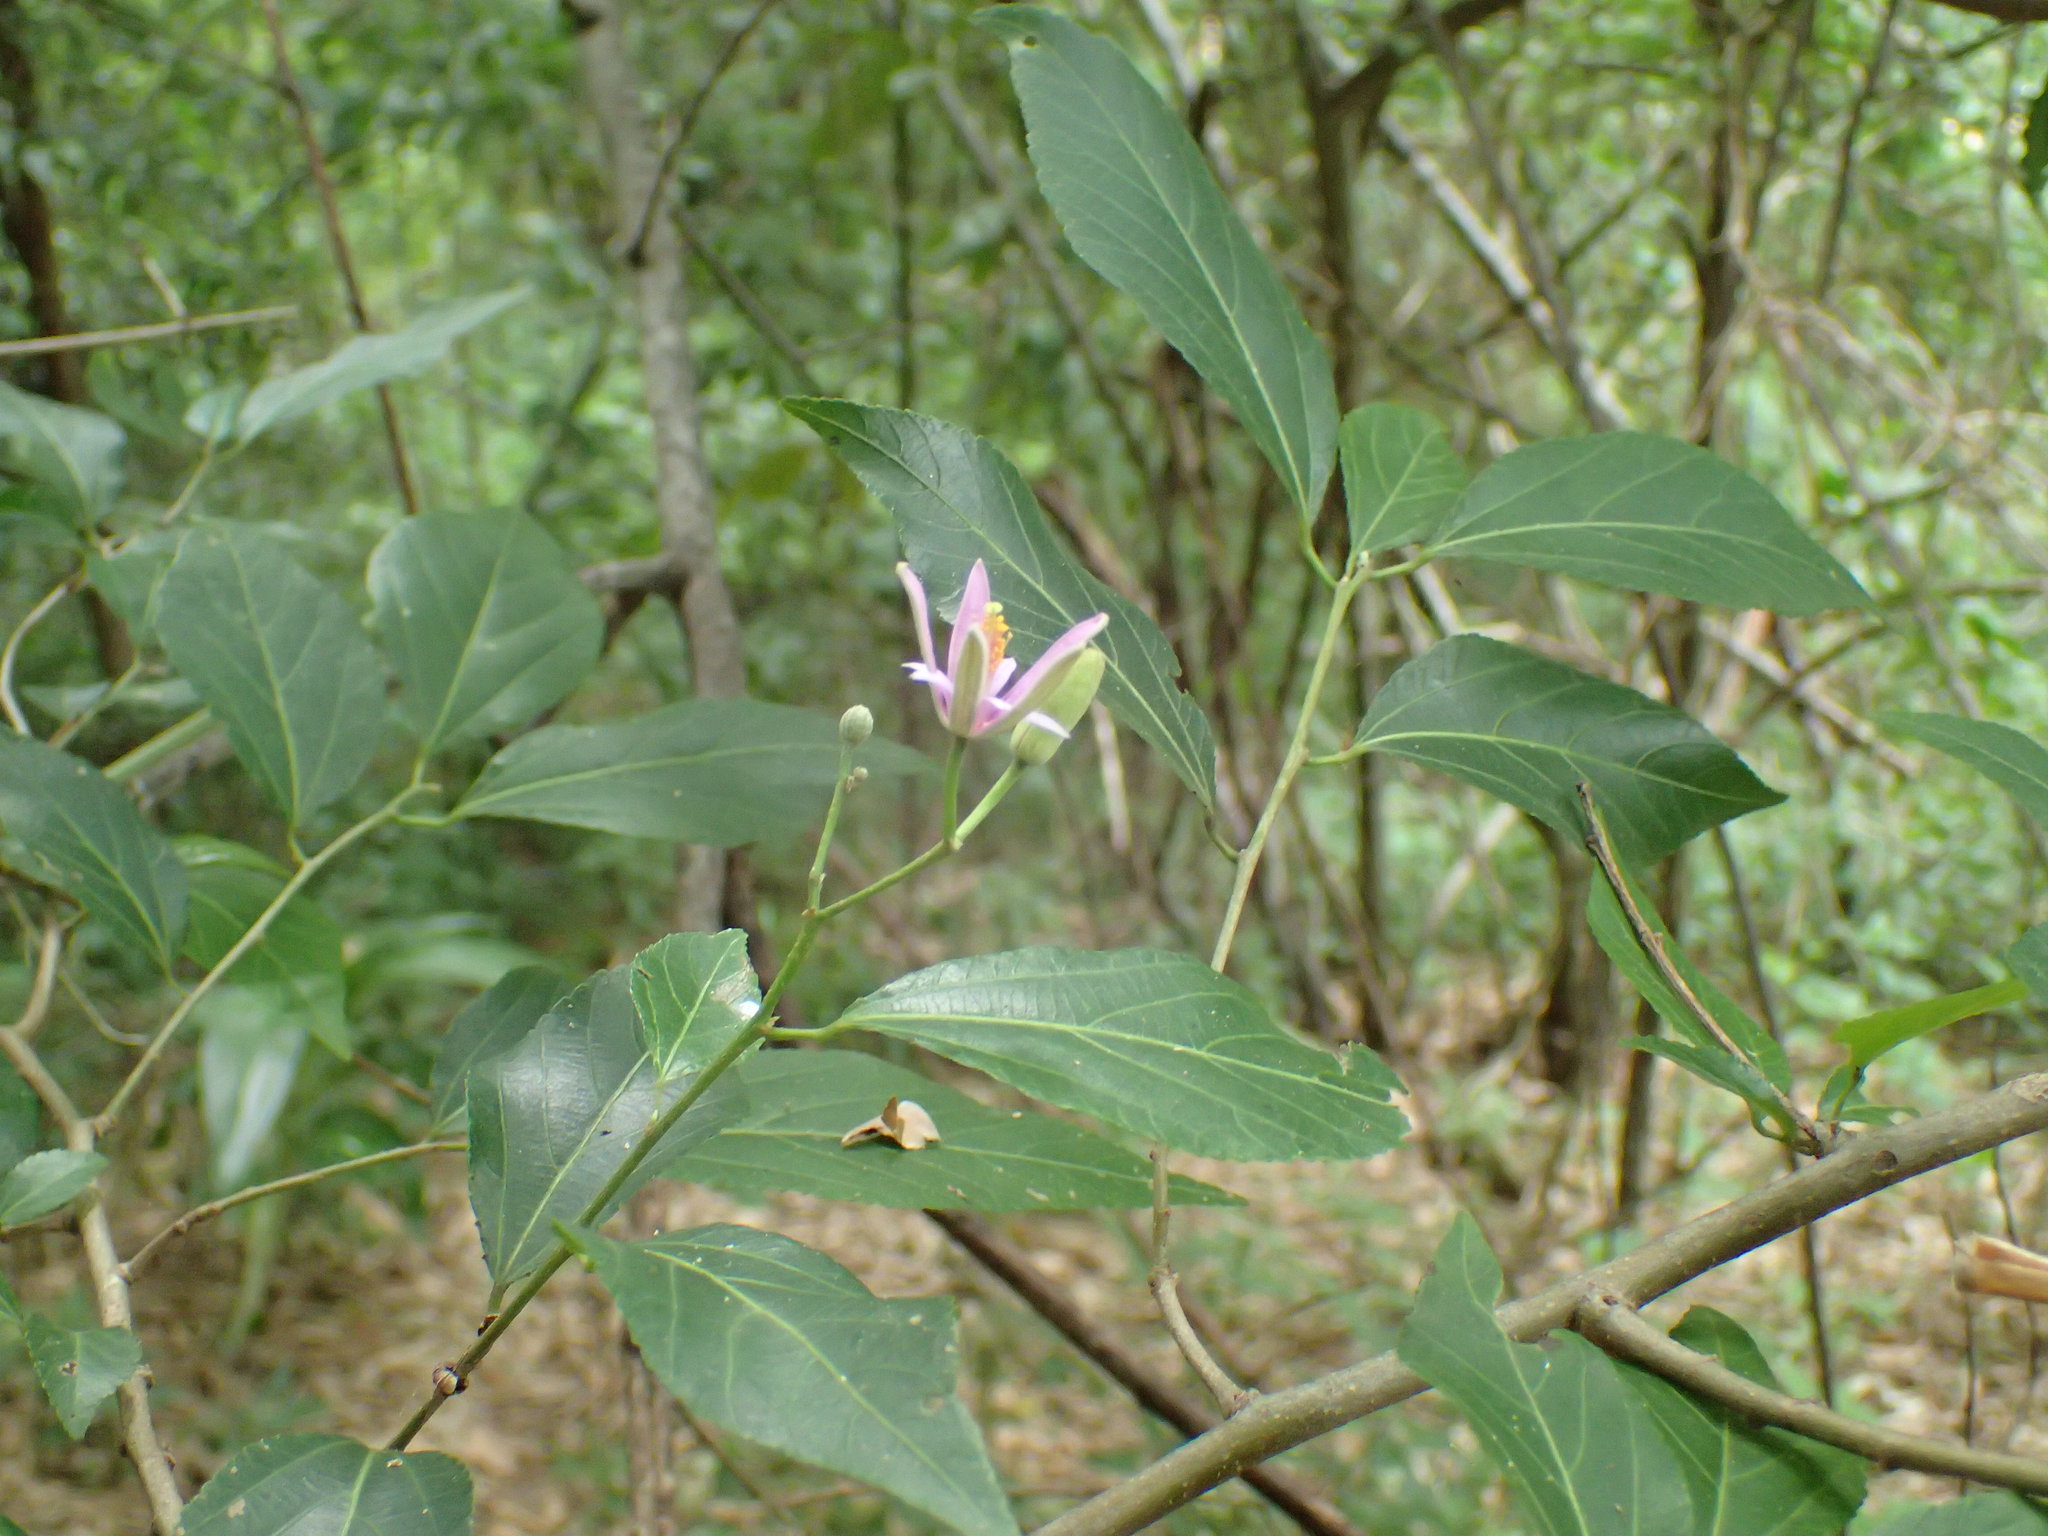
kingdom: Plantae
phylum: Tracheophyta
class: Magnoliopsida
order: Malvales
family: Malvaceae
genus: Grewia
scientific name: Grewia occidentalis
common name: Crossberry
